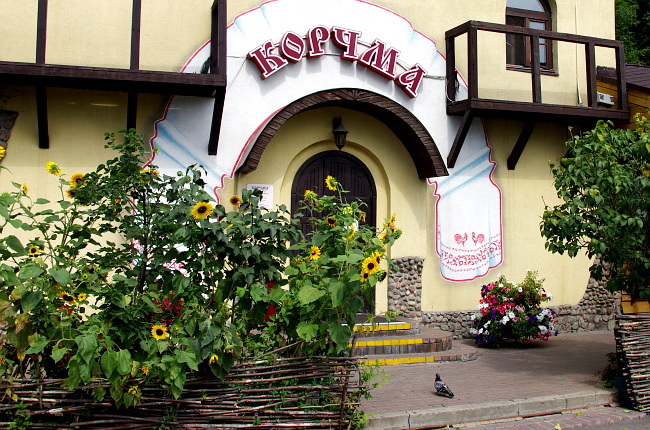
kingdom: Animalia
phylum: Chordata
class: Aves
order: Columbiformes
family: Columbidae
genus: Columba
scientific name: Columba livia
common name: Rock pigeon
